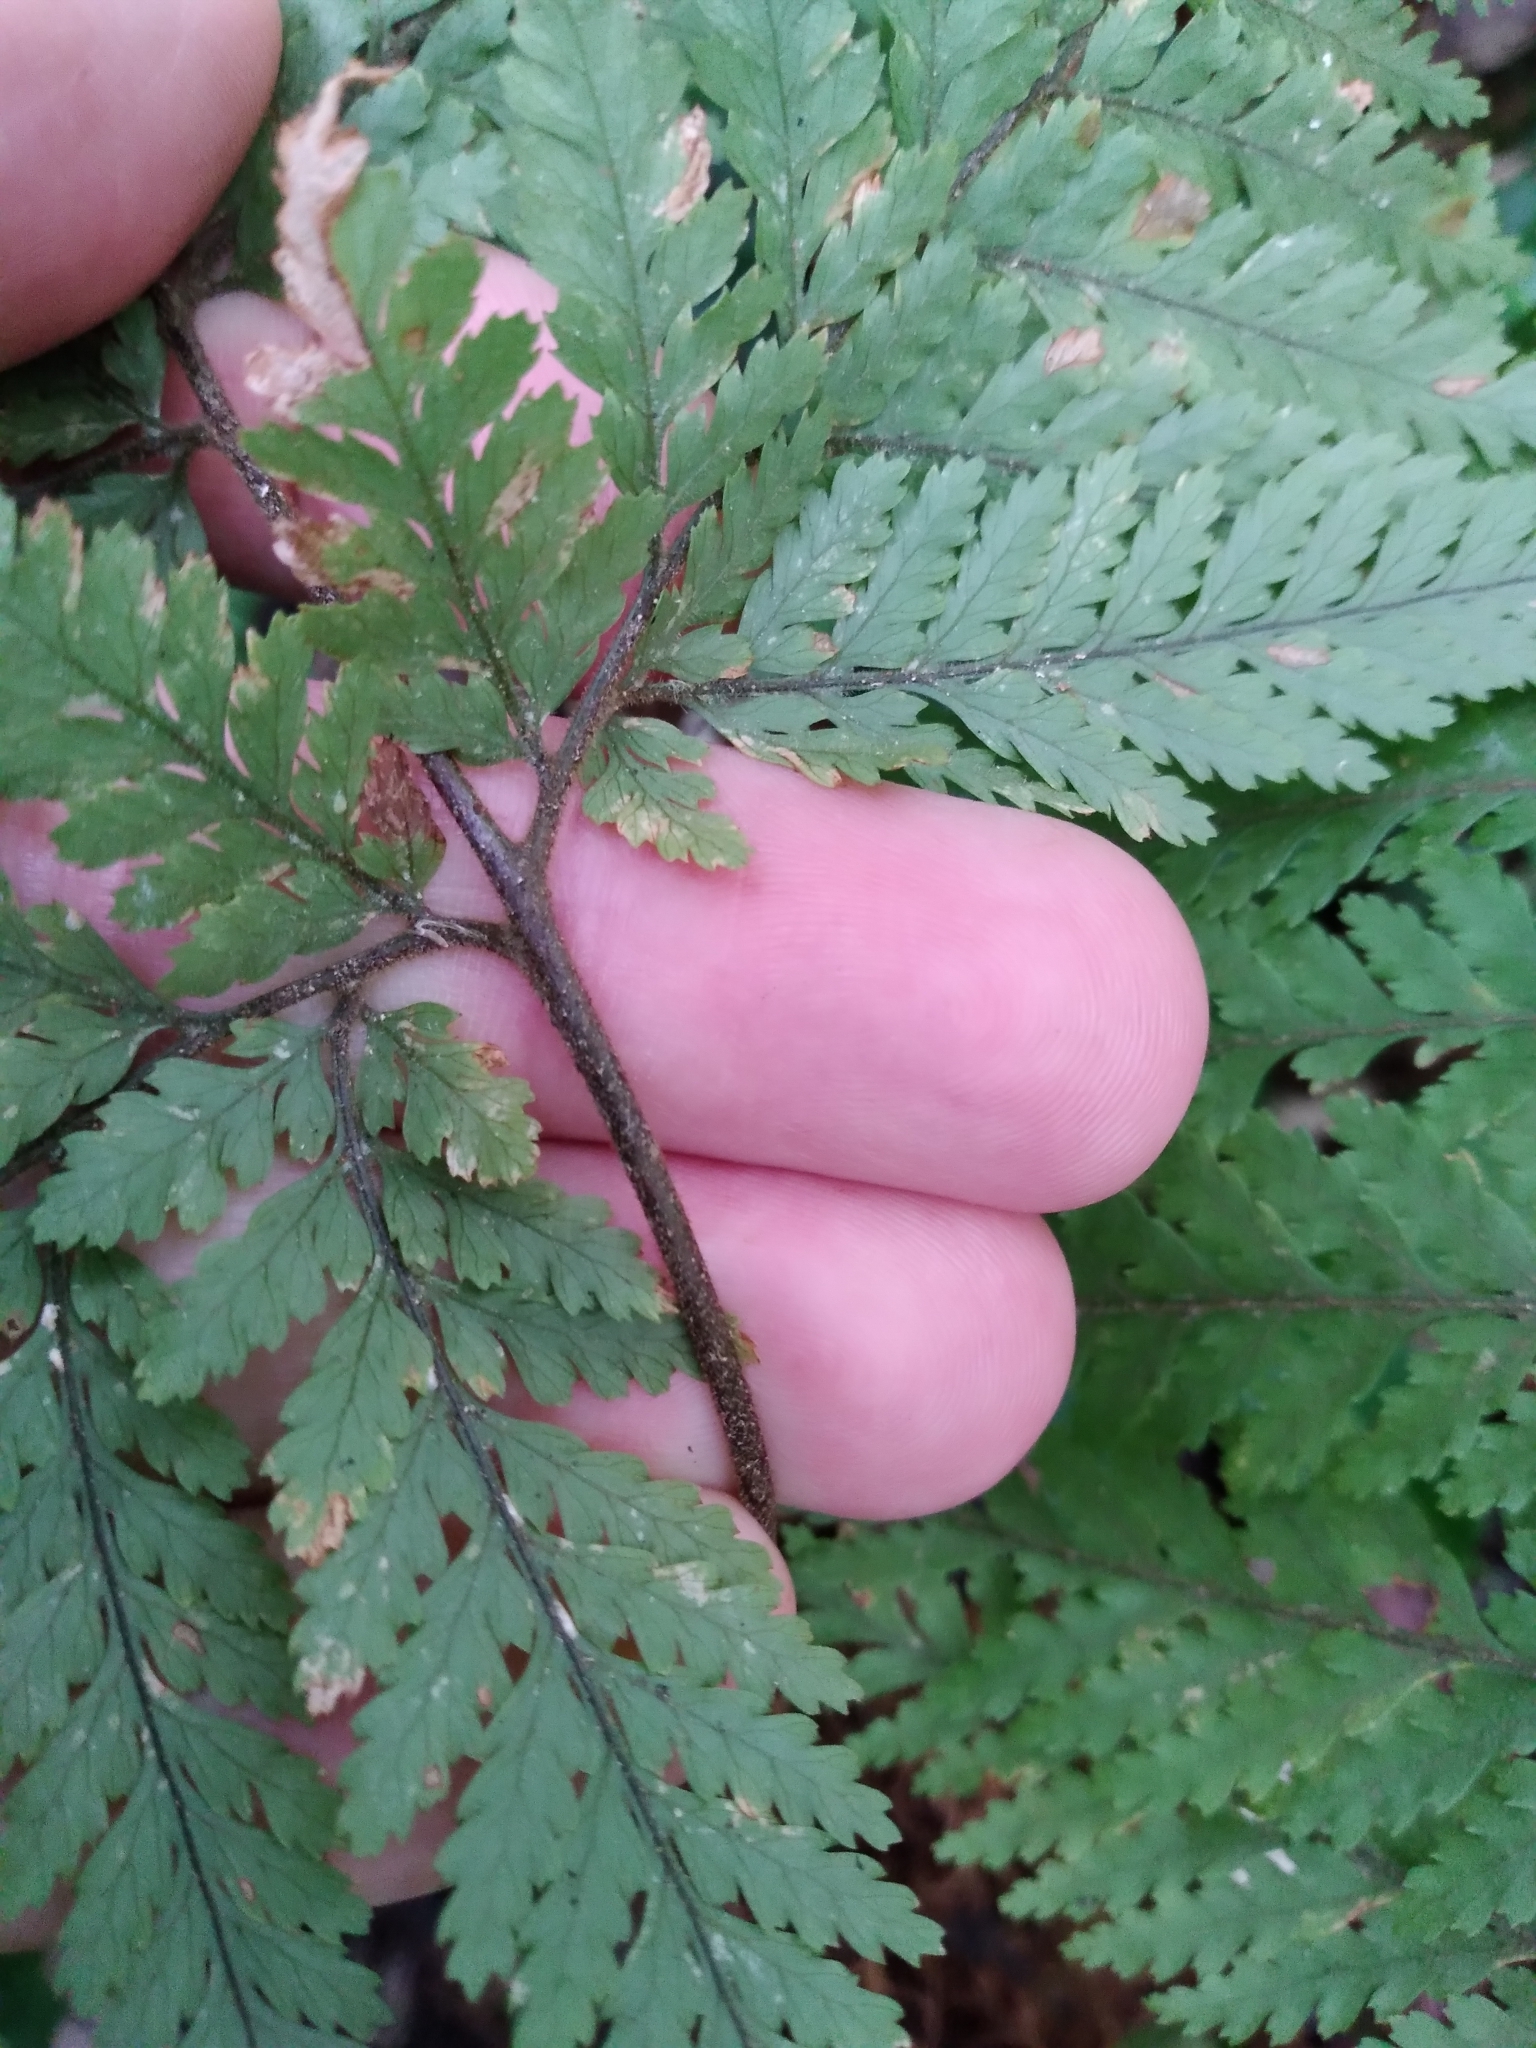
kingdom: Plantae
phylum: Tracheophyta
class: Polypodiopsida
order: Polypodiales
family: Dryopteridaceae
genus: Parapolystichum
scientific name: Parapolystichum microsorum
